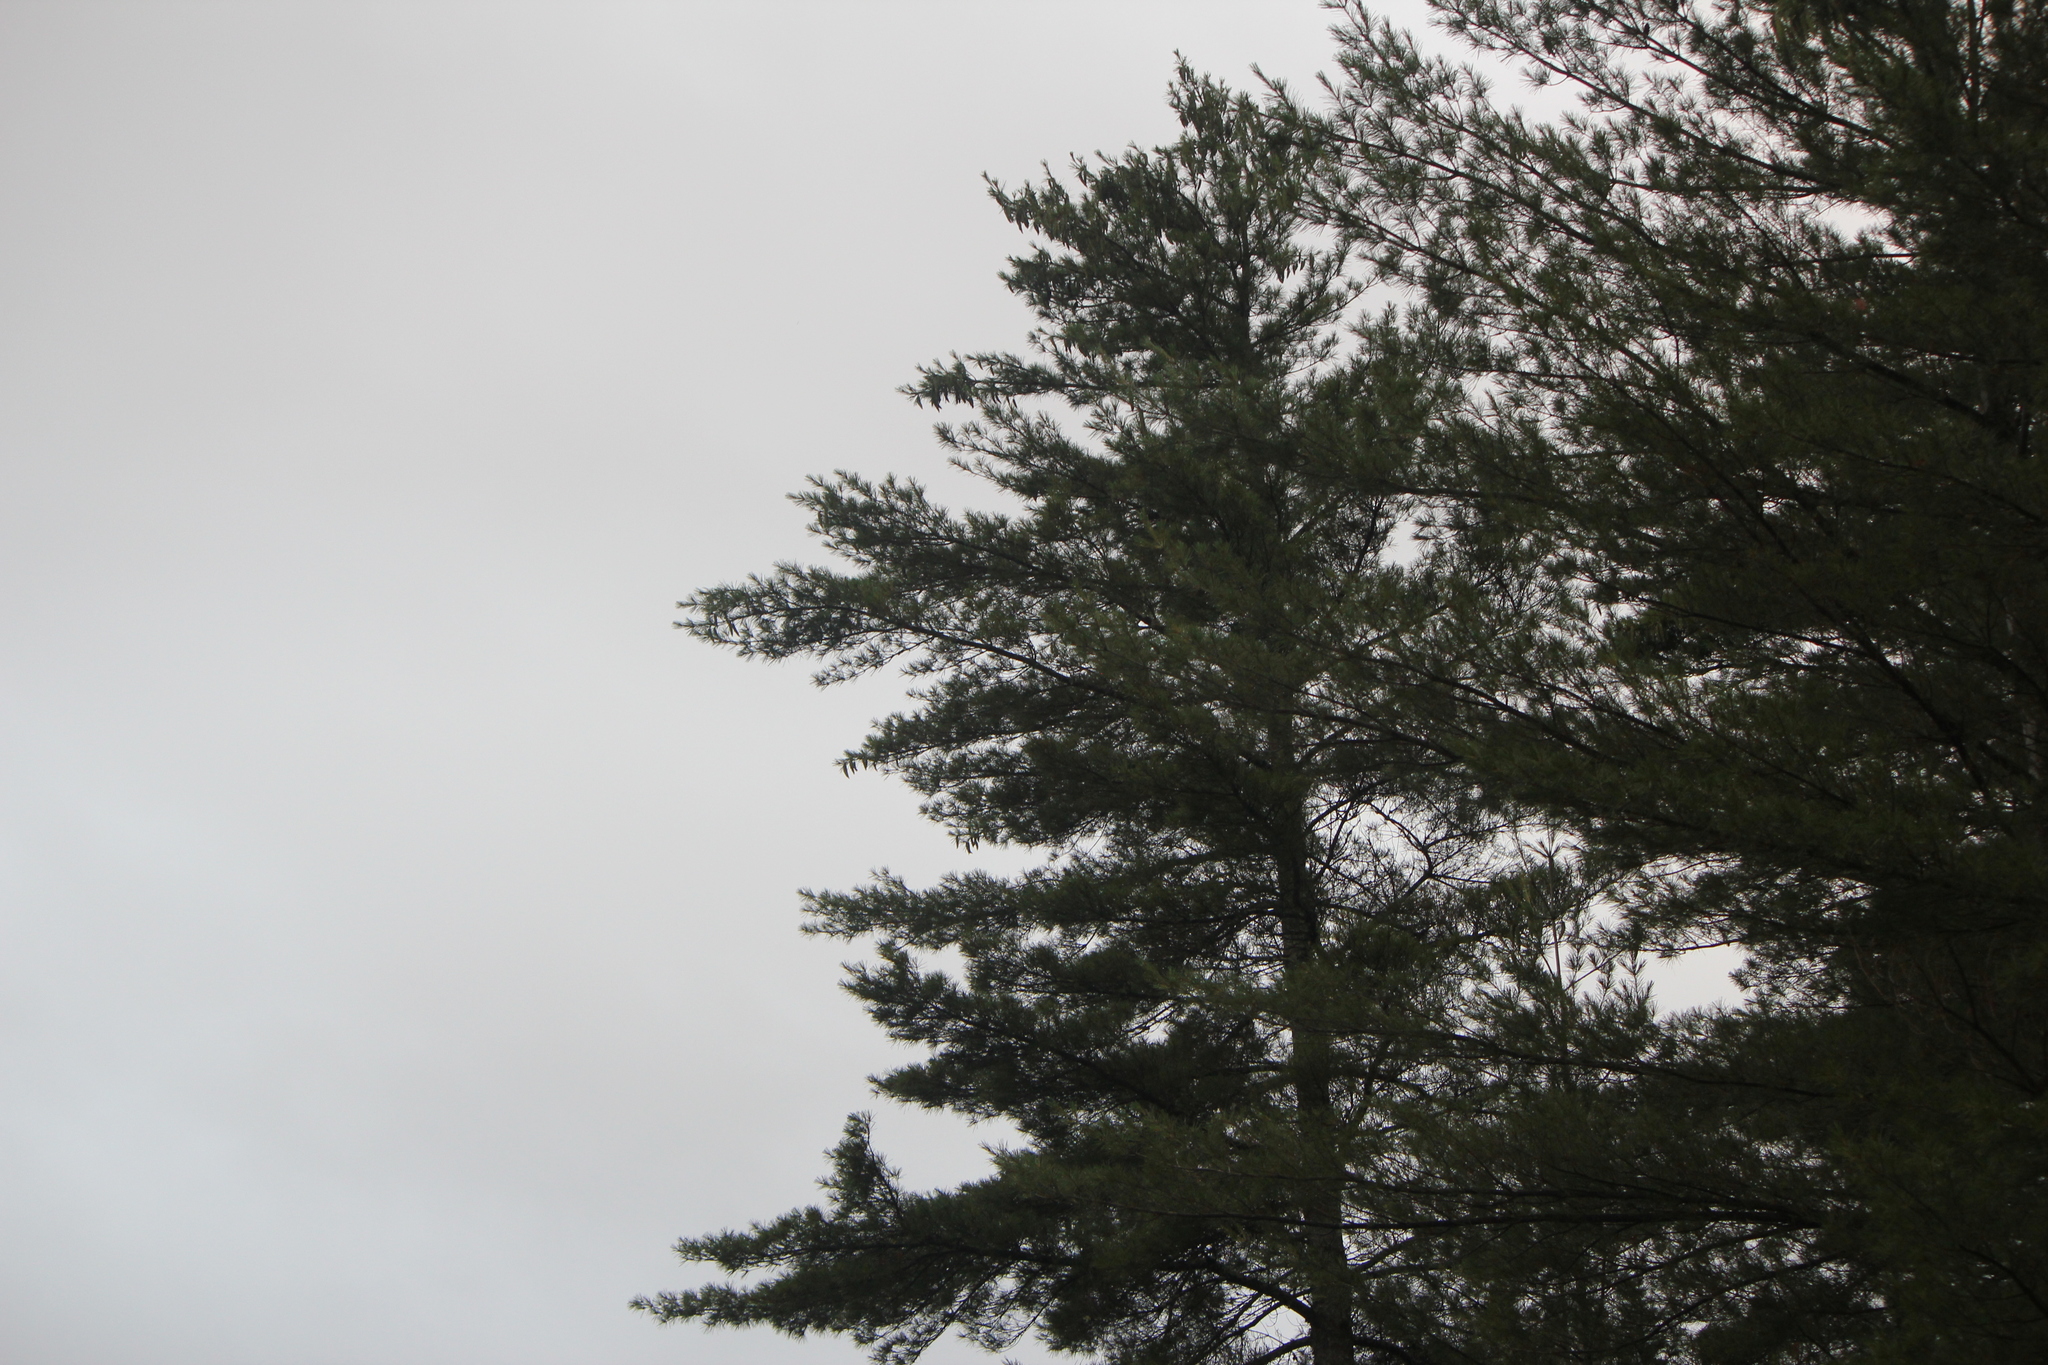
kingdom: Plantae
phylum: Tracheophyta
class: Pinopsida
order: Pinales
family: Pinaceae
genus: Pinus
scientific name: Pinus strobus
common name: Weymouth pine
